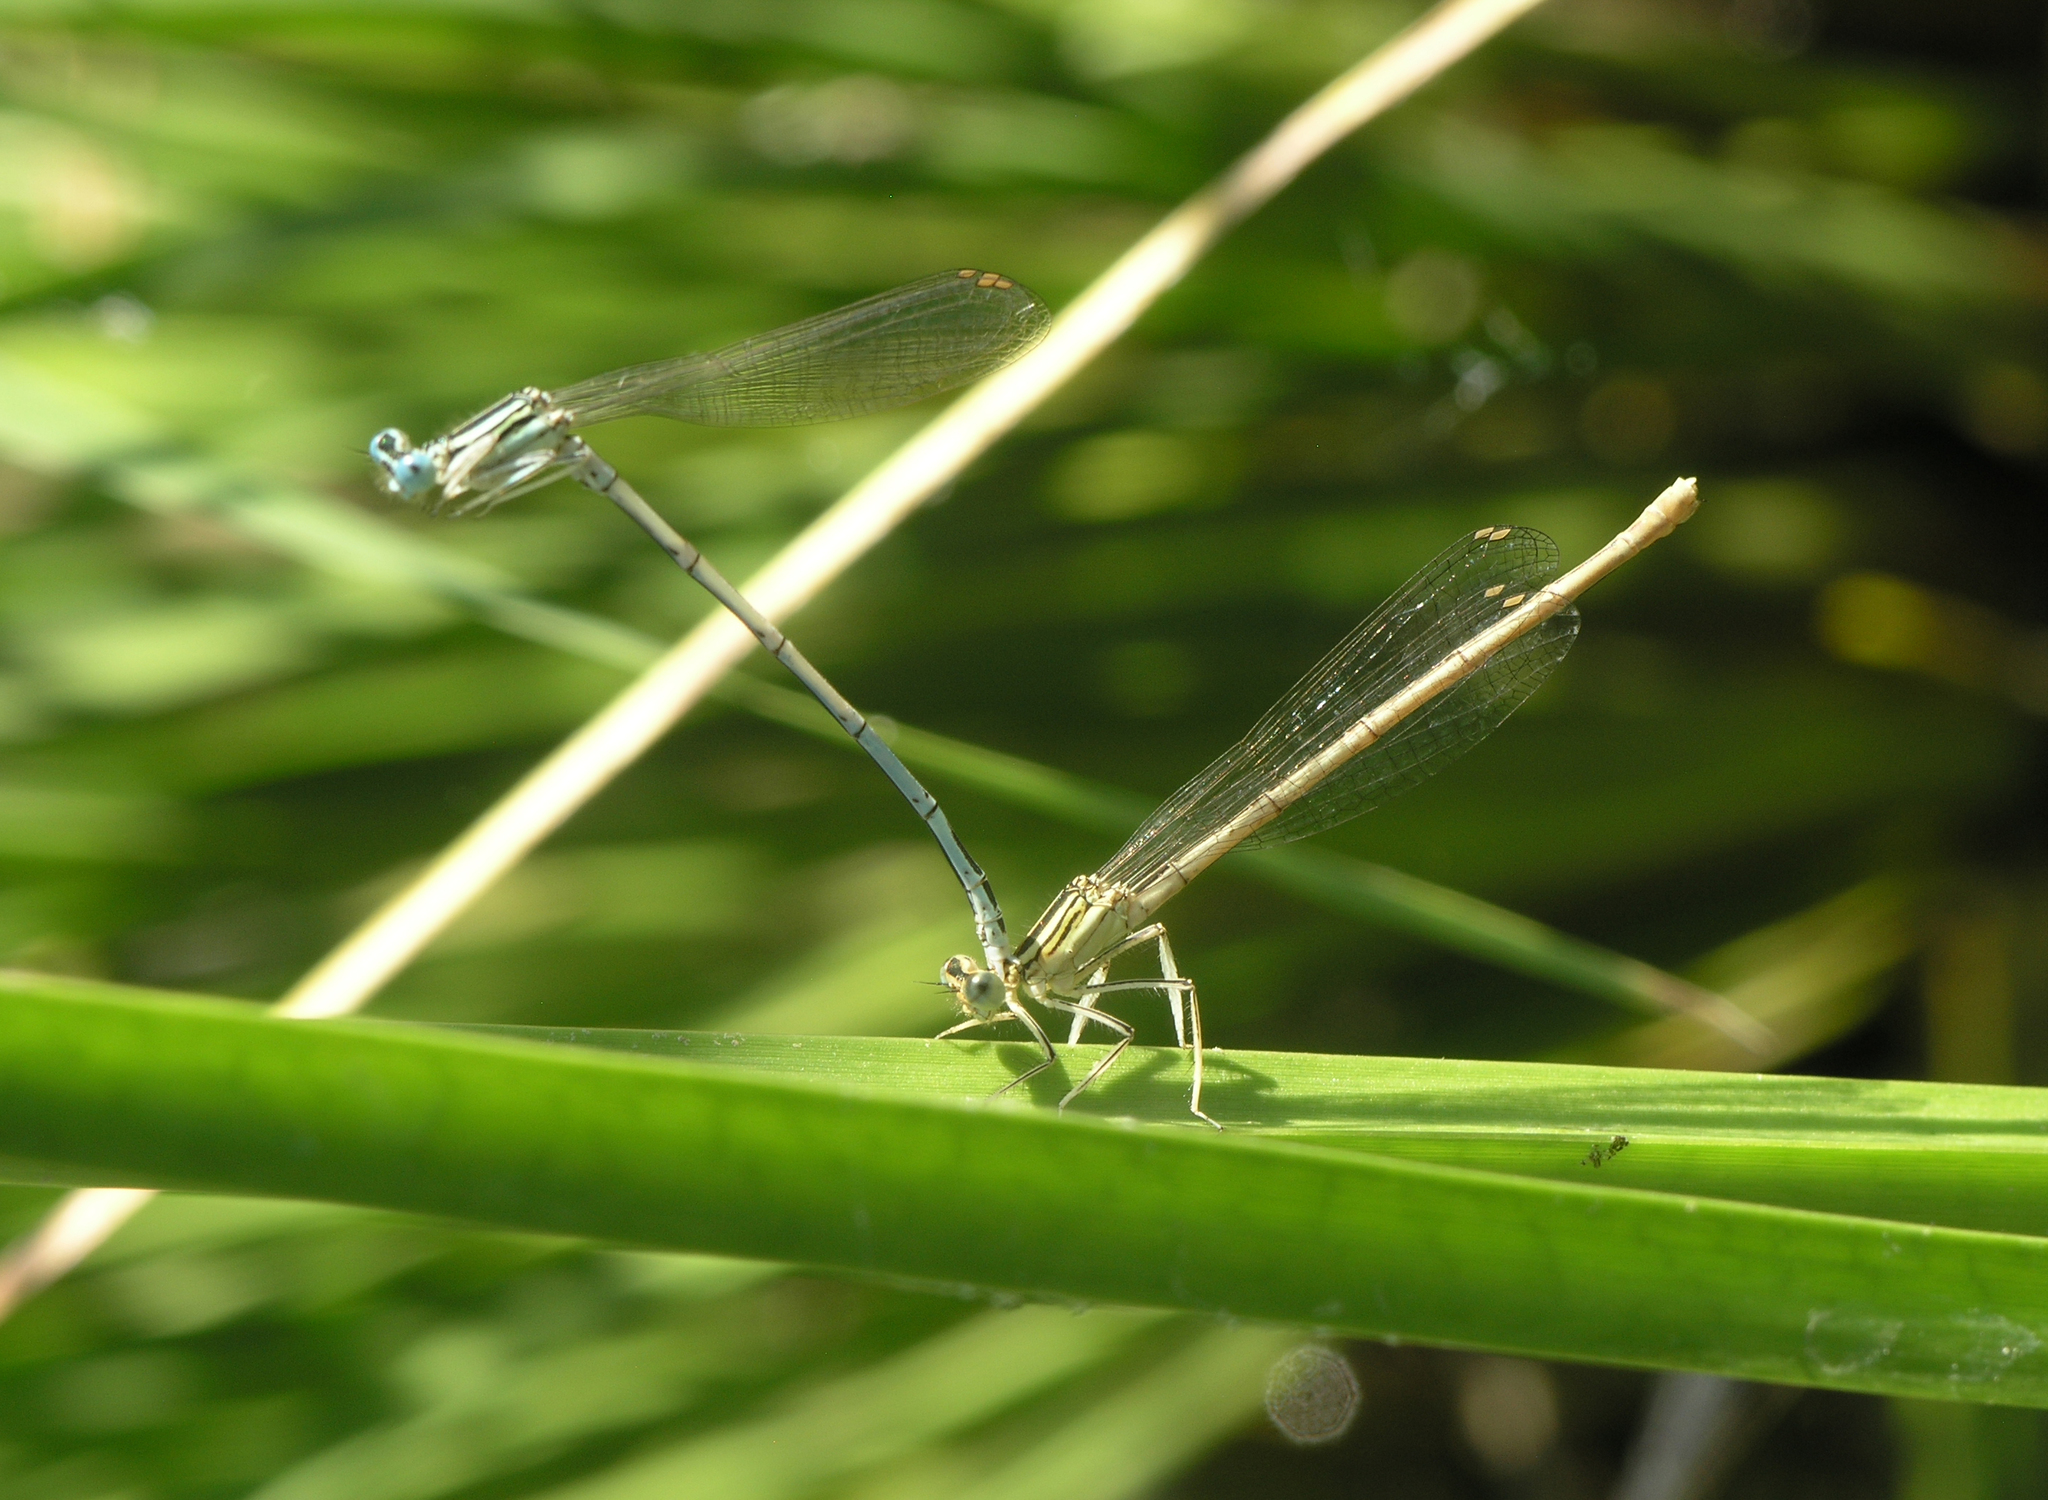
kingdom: Animalia
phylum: Arthropoda
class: Insecta
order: Odonata
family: Platycnemididae
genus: Platycnemis
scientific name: Platycnemis pennipes
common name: White-legged damselfly
